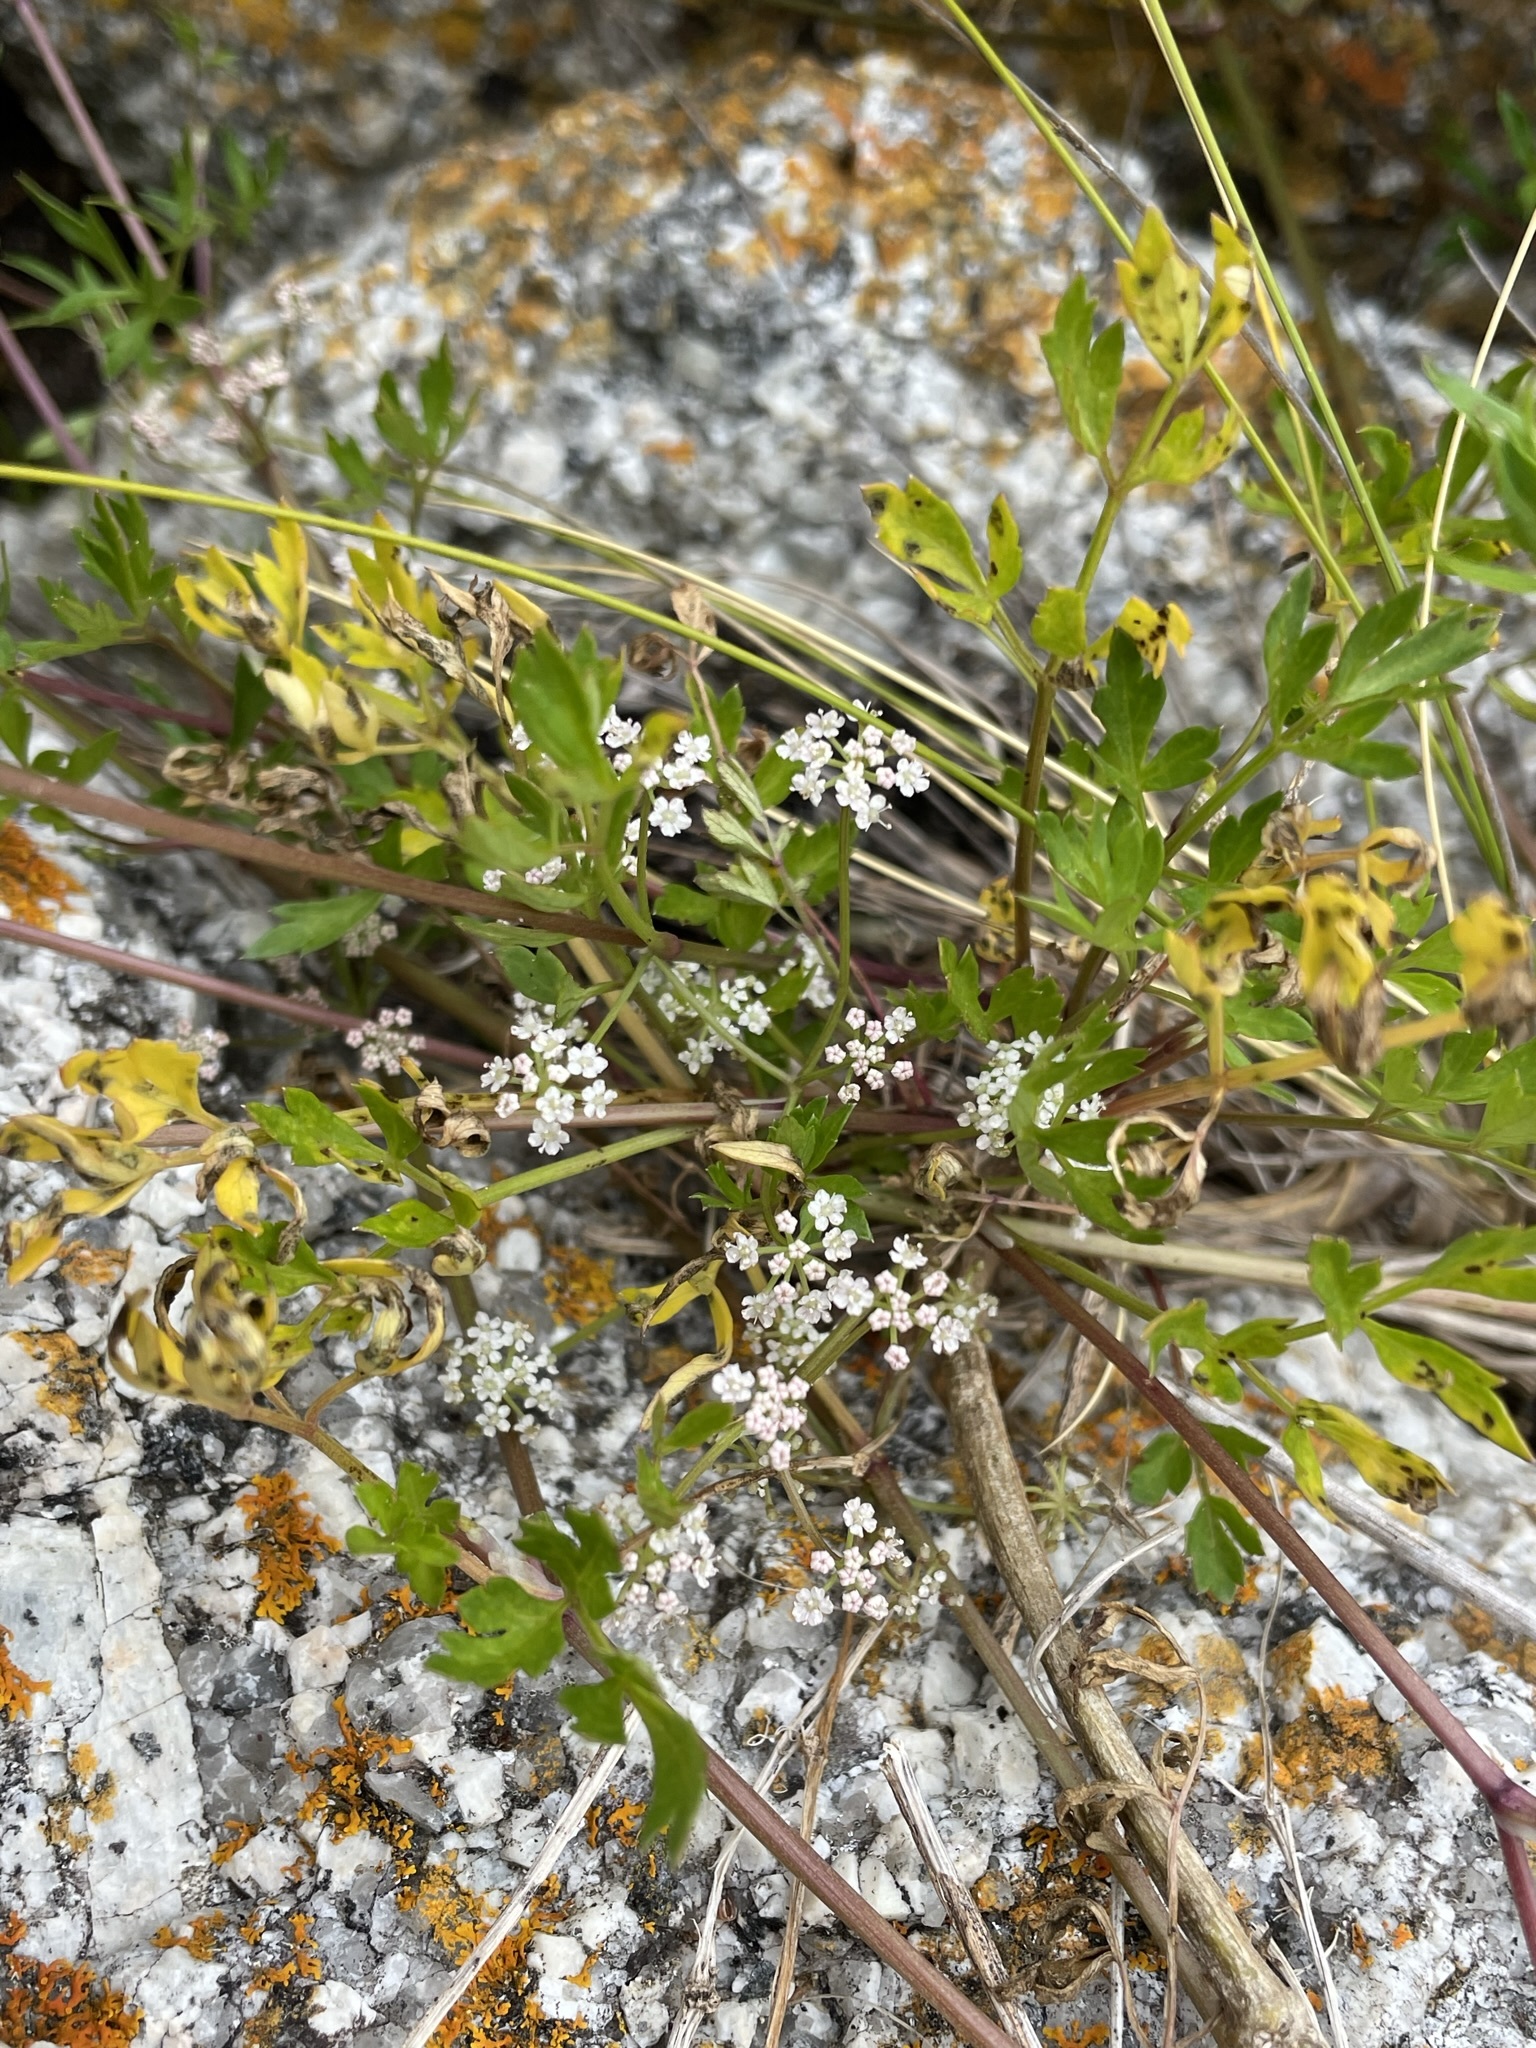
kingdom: Plantae
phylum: Tracheophyta
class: Magnoliopsida
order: Apiales
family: Apiaceae
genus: Apium
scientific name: Apium prostratum
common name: Prostrate marshwort
